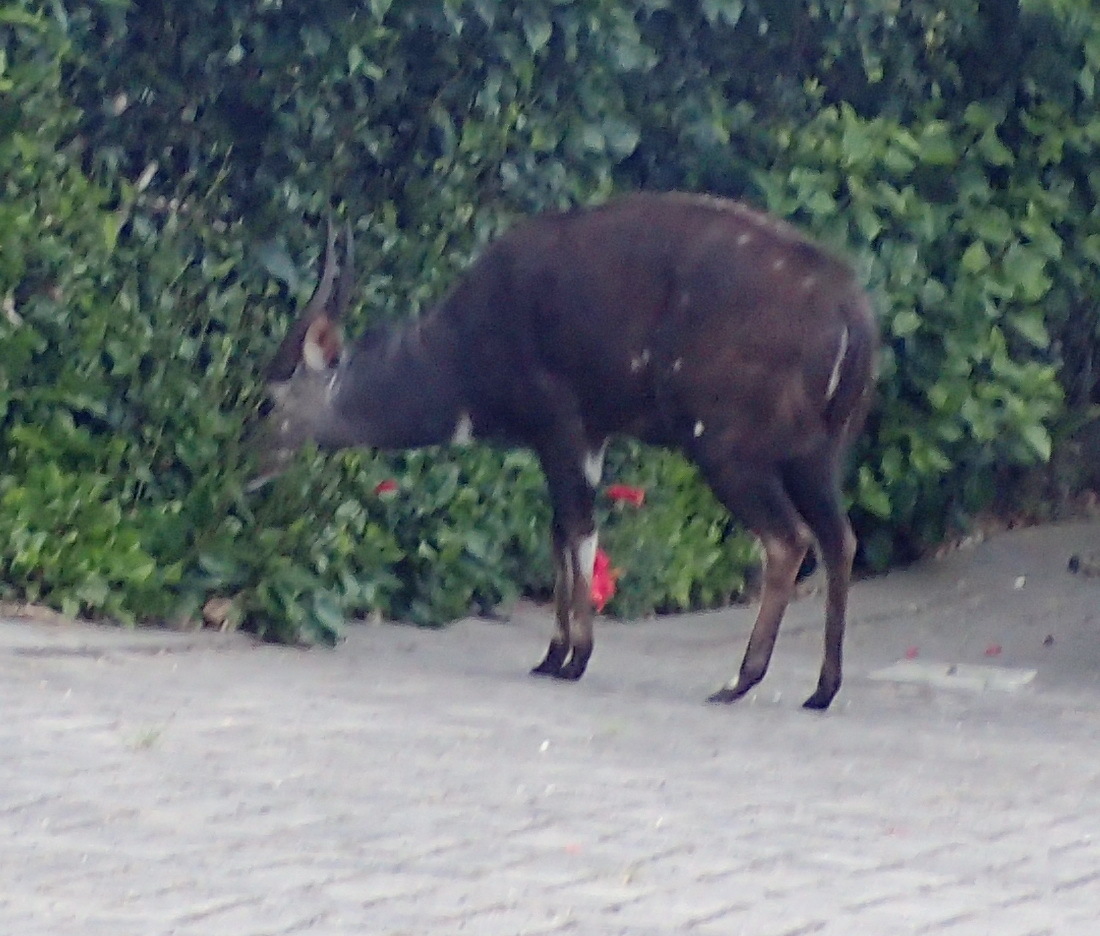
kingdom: Animalia
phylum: Chordata
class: Mammalia
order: Artiodactyla
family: Bovidae
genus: Tragelaphus
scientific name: Tragelaphus scriptus
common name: Bushbuck
